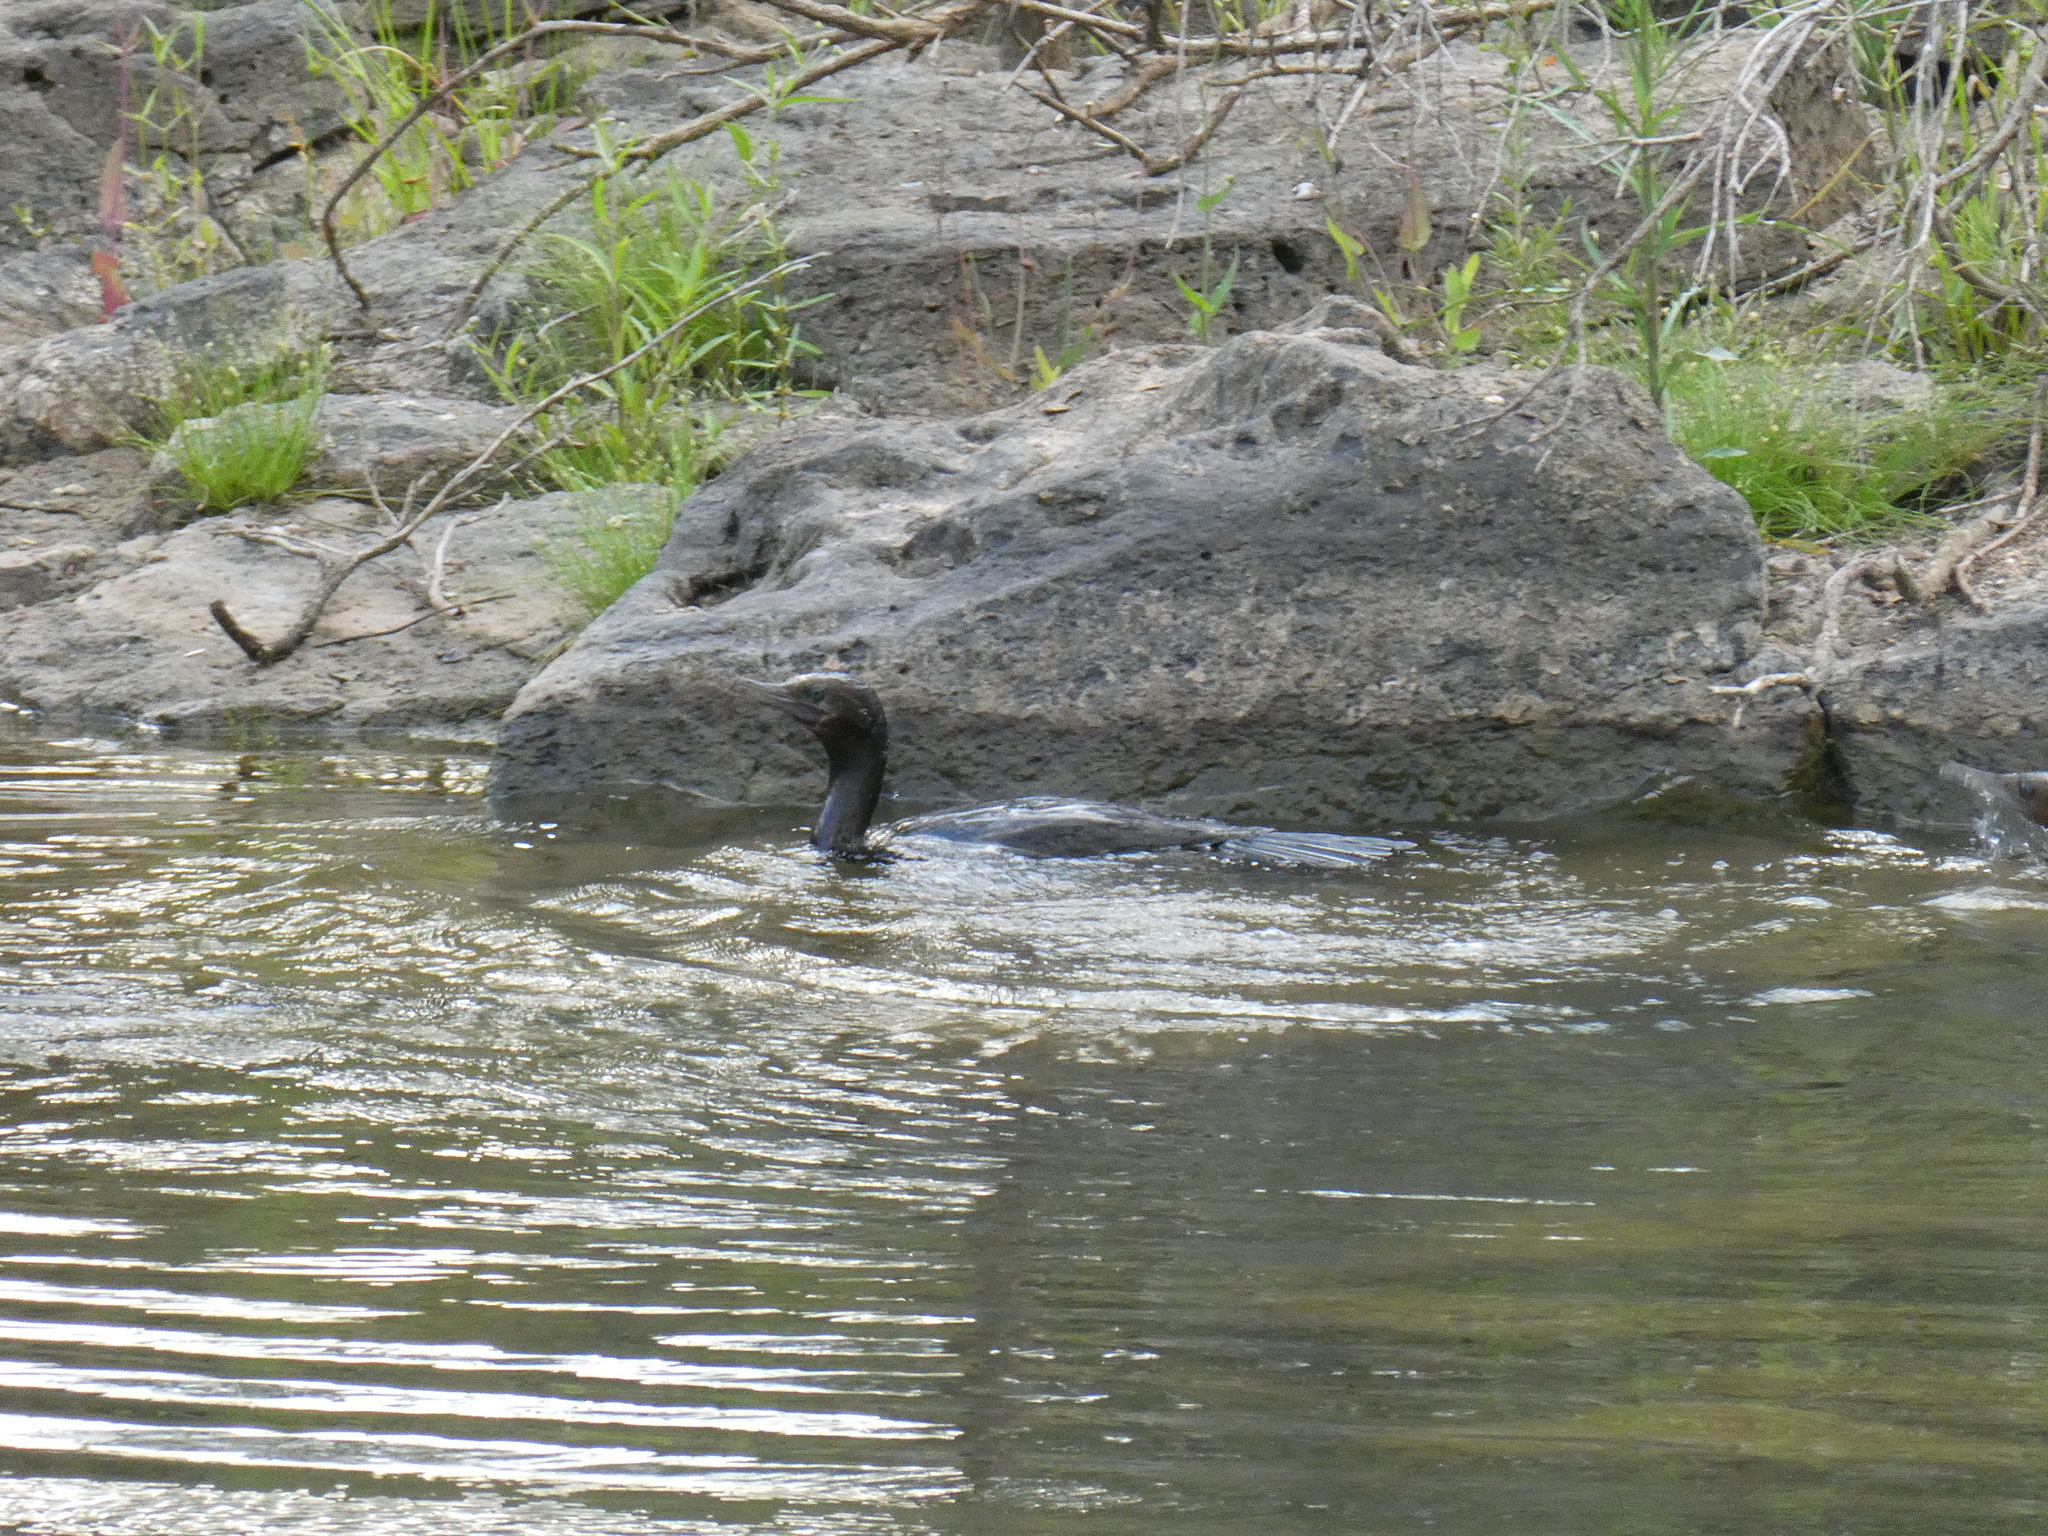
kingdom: Animalia
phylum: Chordata
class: Aves
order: Suliformes
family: Phalacrocoracidae
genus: Phalacrocorax
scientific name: Phalacrocorax sulcirostris
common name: Little black cormorant
